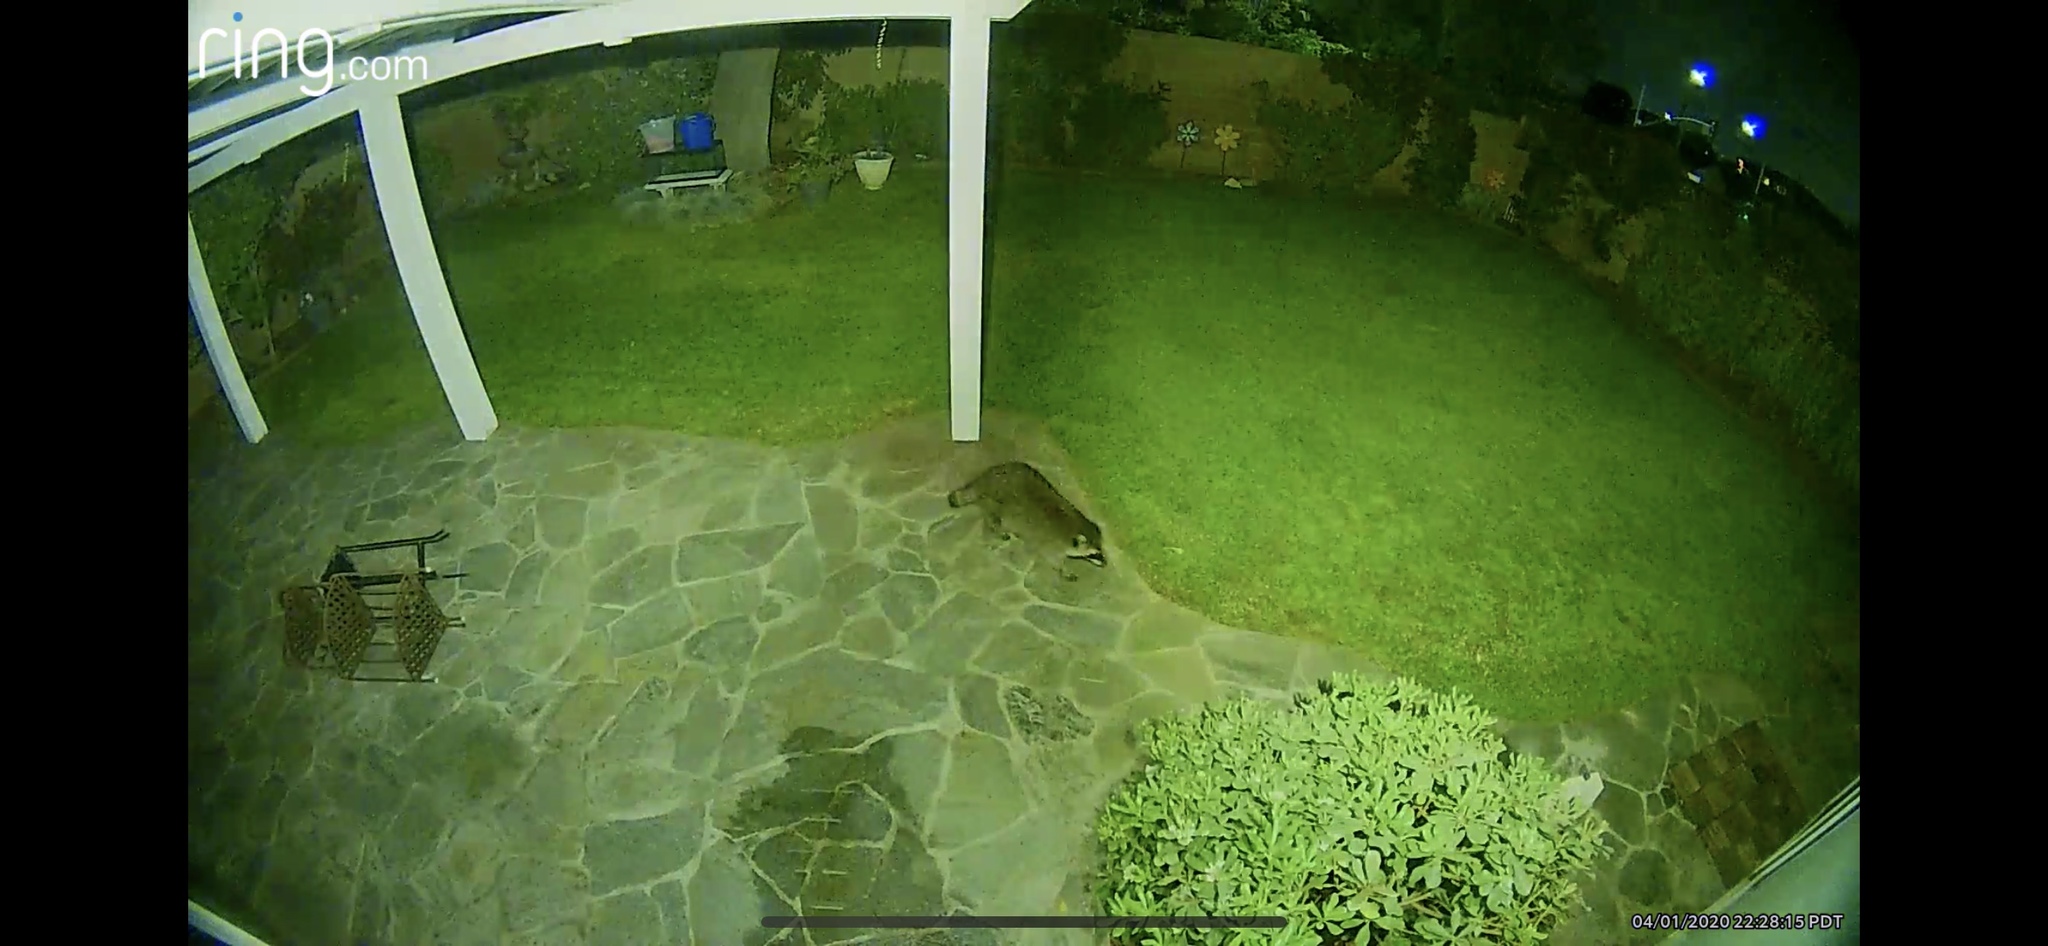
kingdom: Animalia
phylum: Chordata
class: Mammalia
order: Carnivora
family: Procyonidae
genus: Procyon
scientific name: Procyon lotor
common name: Raccoon
